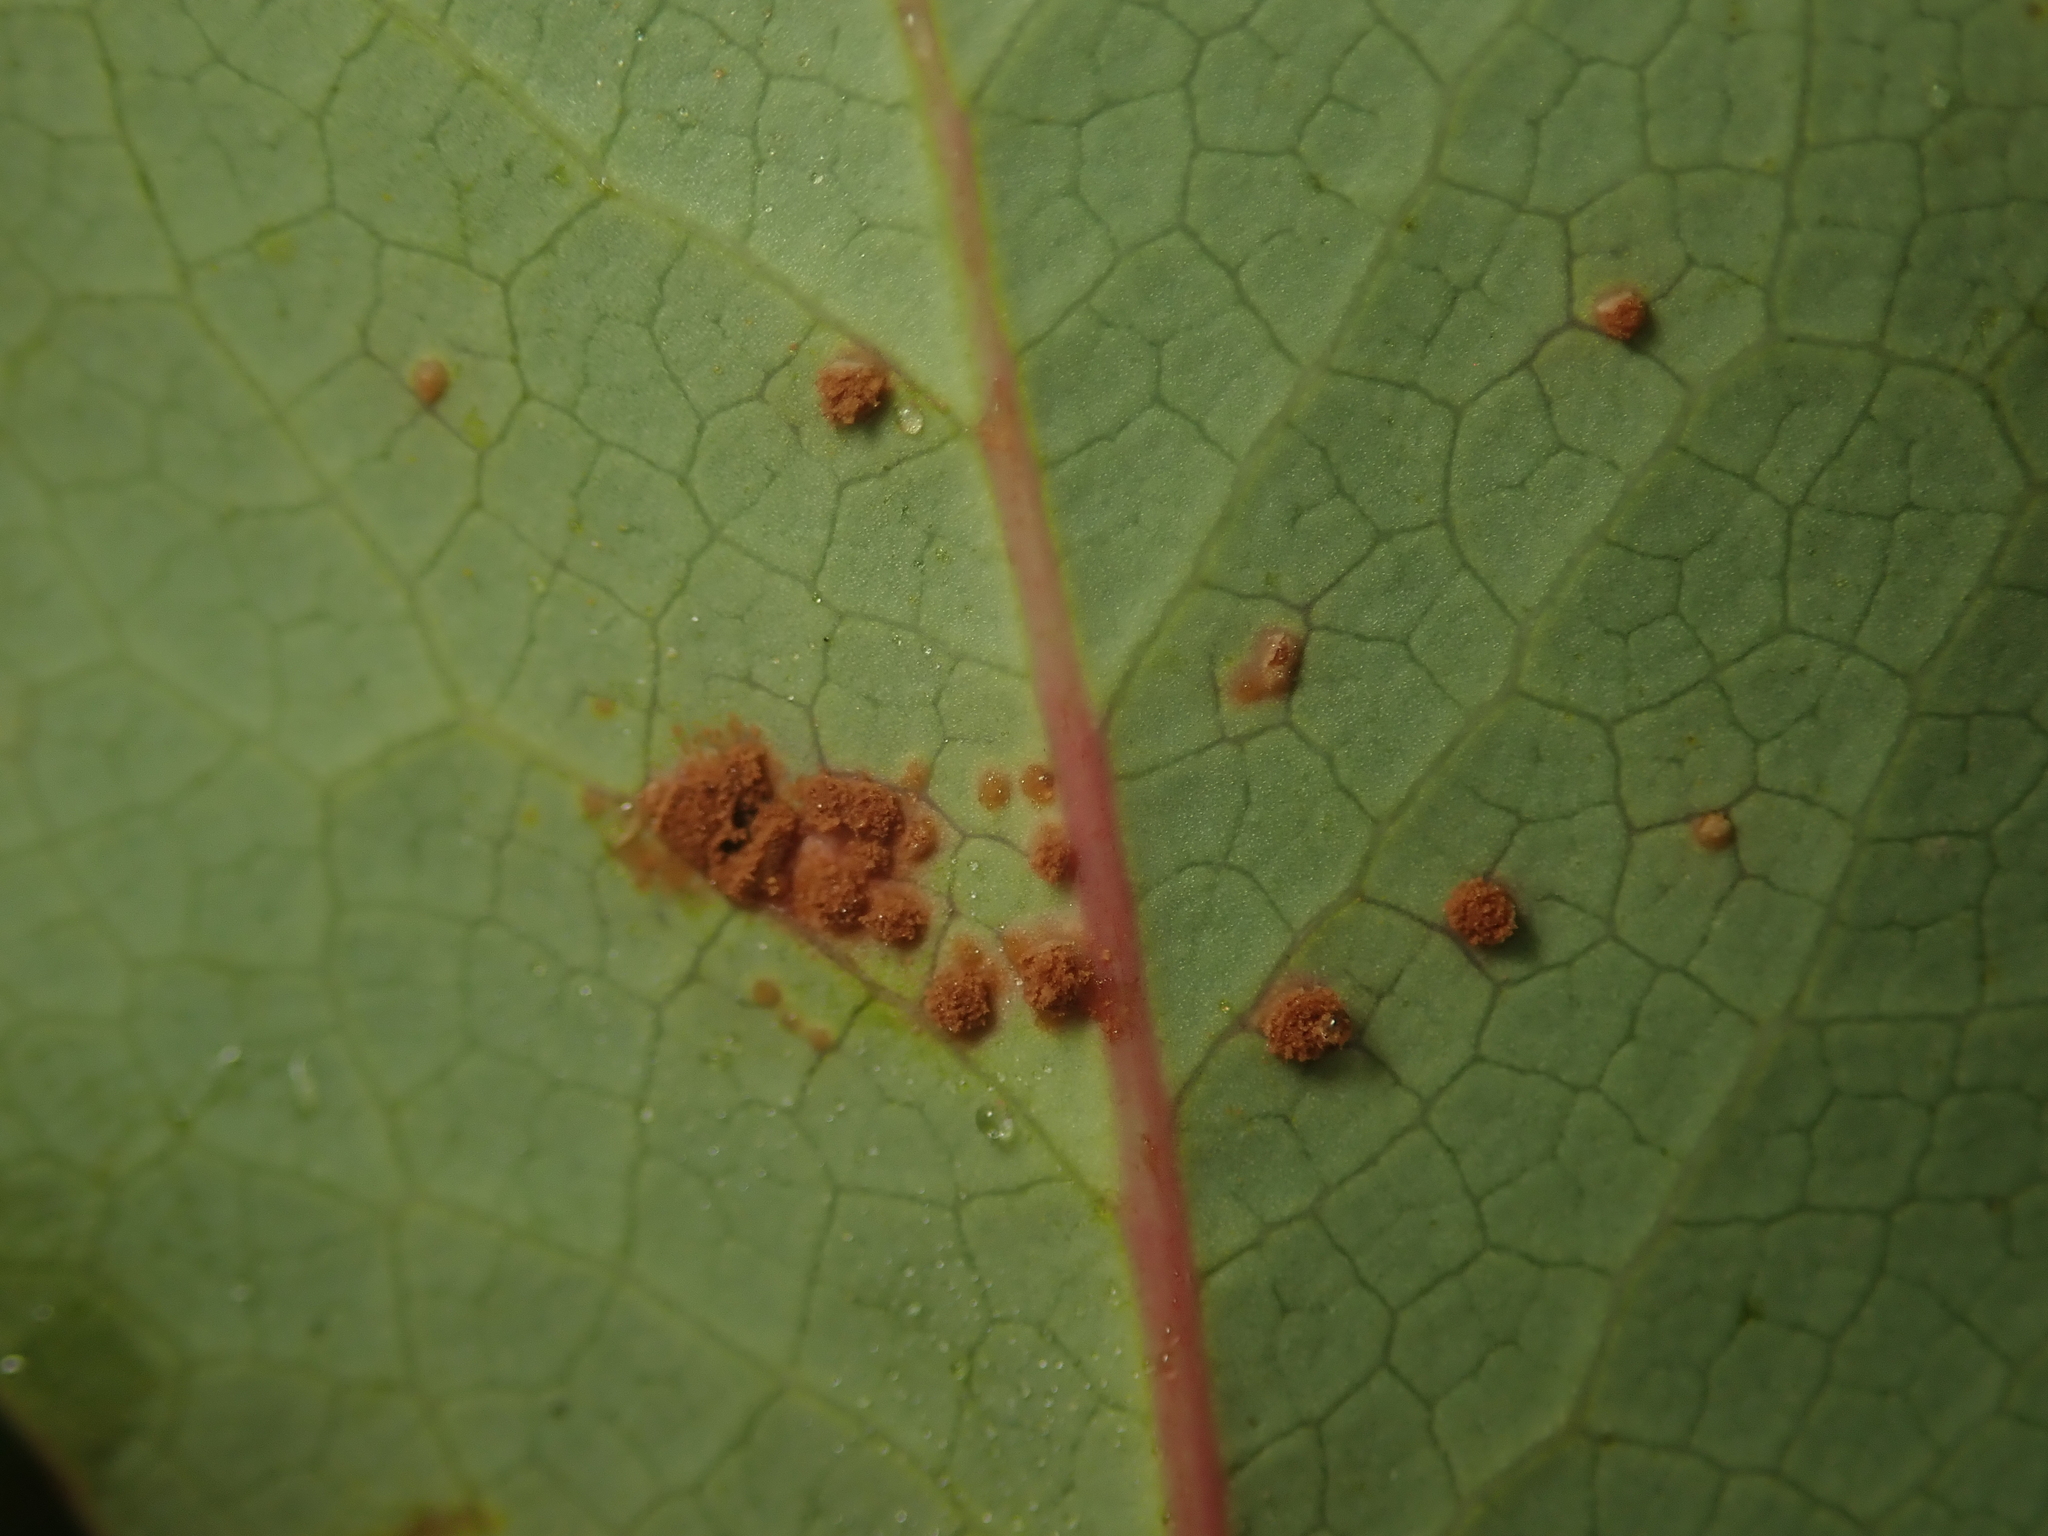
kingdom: Fungi
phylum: Basidiomycota
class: Pucciniomycetes
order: Pucciniales
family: Pucciniaceae
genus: Cumminsiella
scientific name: Cumminsiella mirabilissima
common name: Mahonia rust
